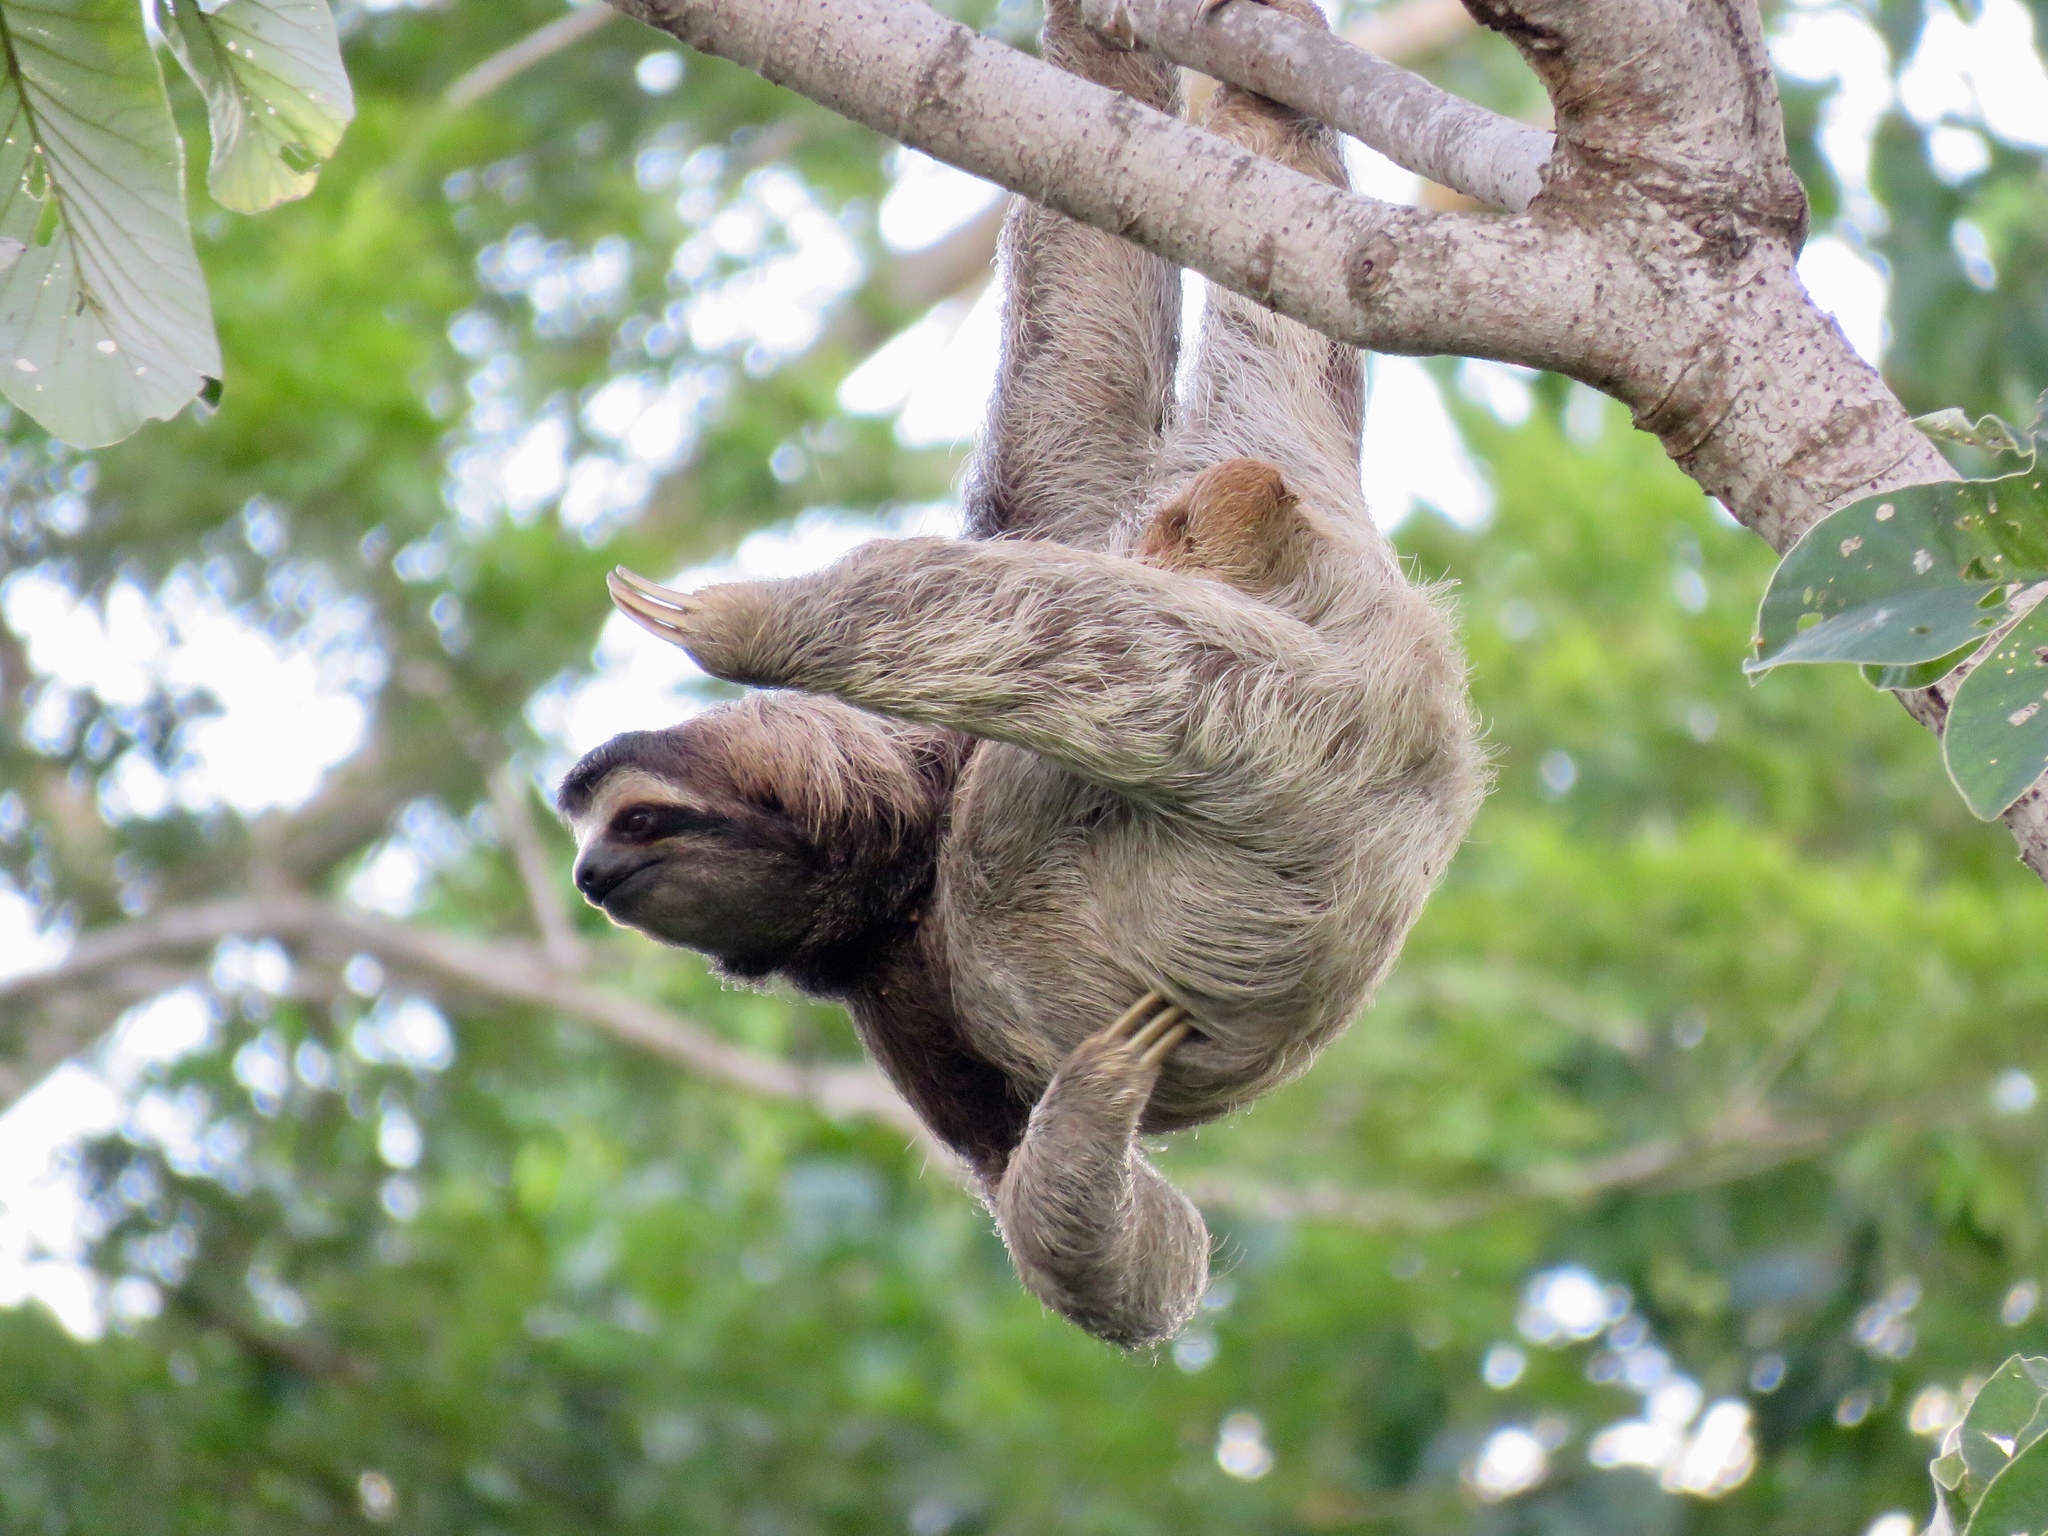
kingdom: Animalia
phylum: Chordata
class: Mammalia
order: Pilosa
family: Bradypodidae
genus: Bradypus
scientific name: Bradypus variegatus
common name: Brown-throated three-toed sloth
